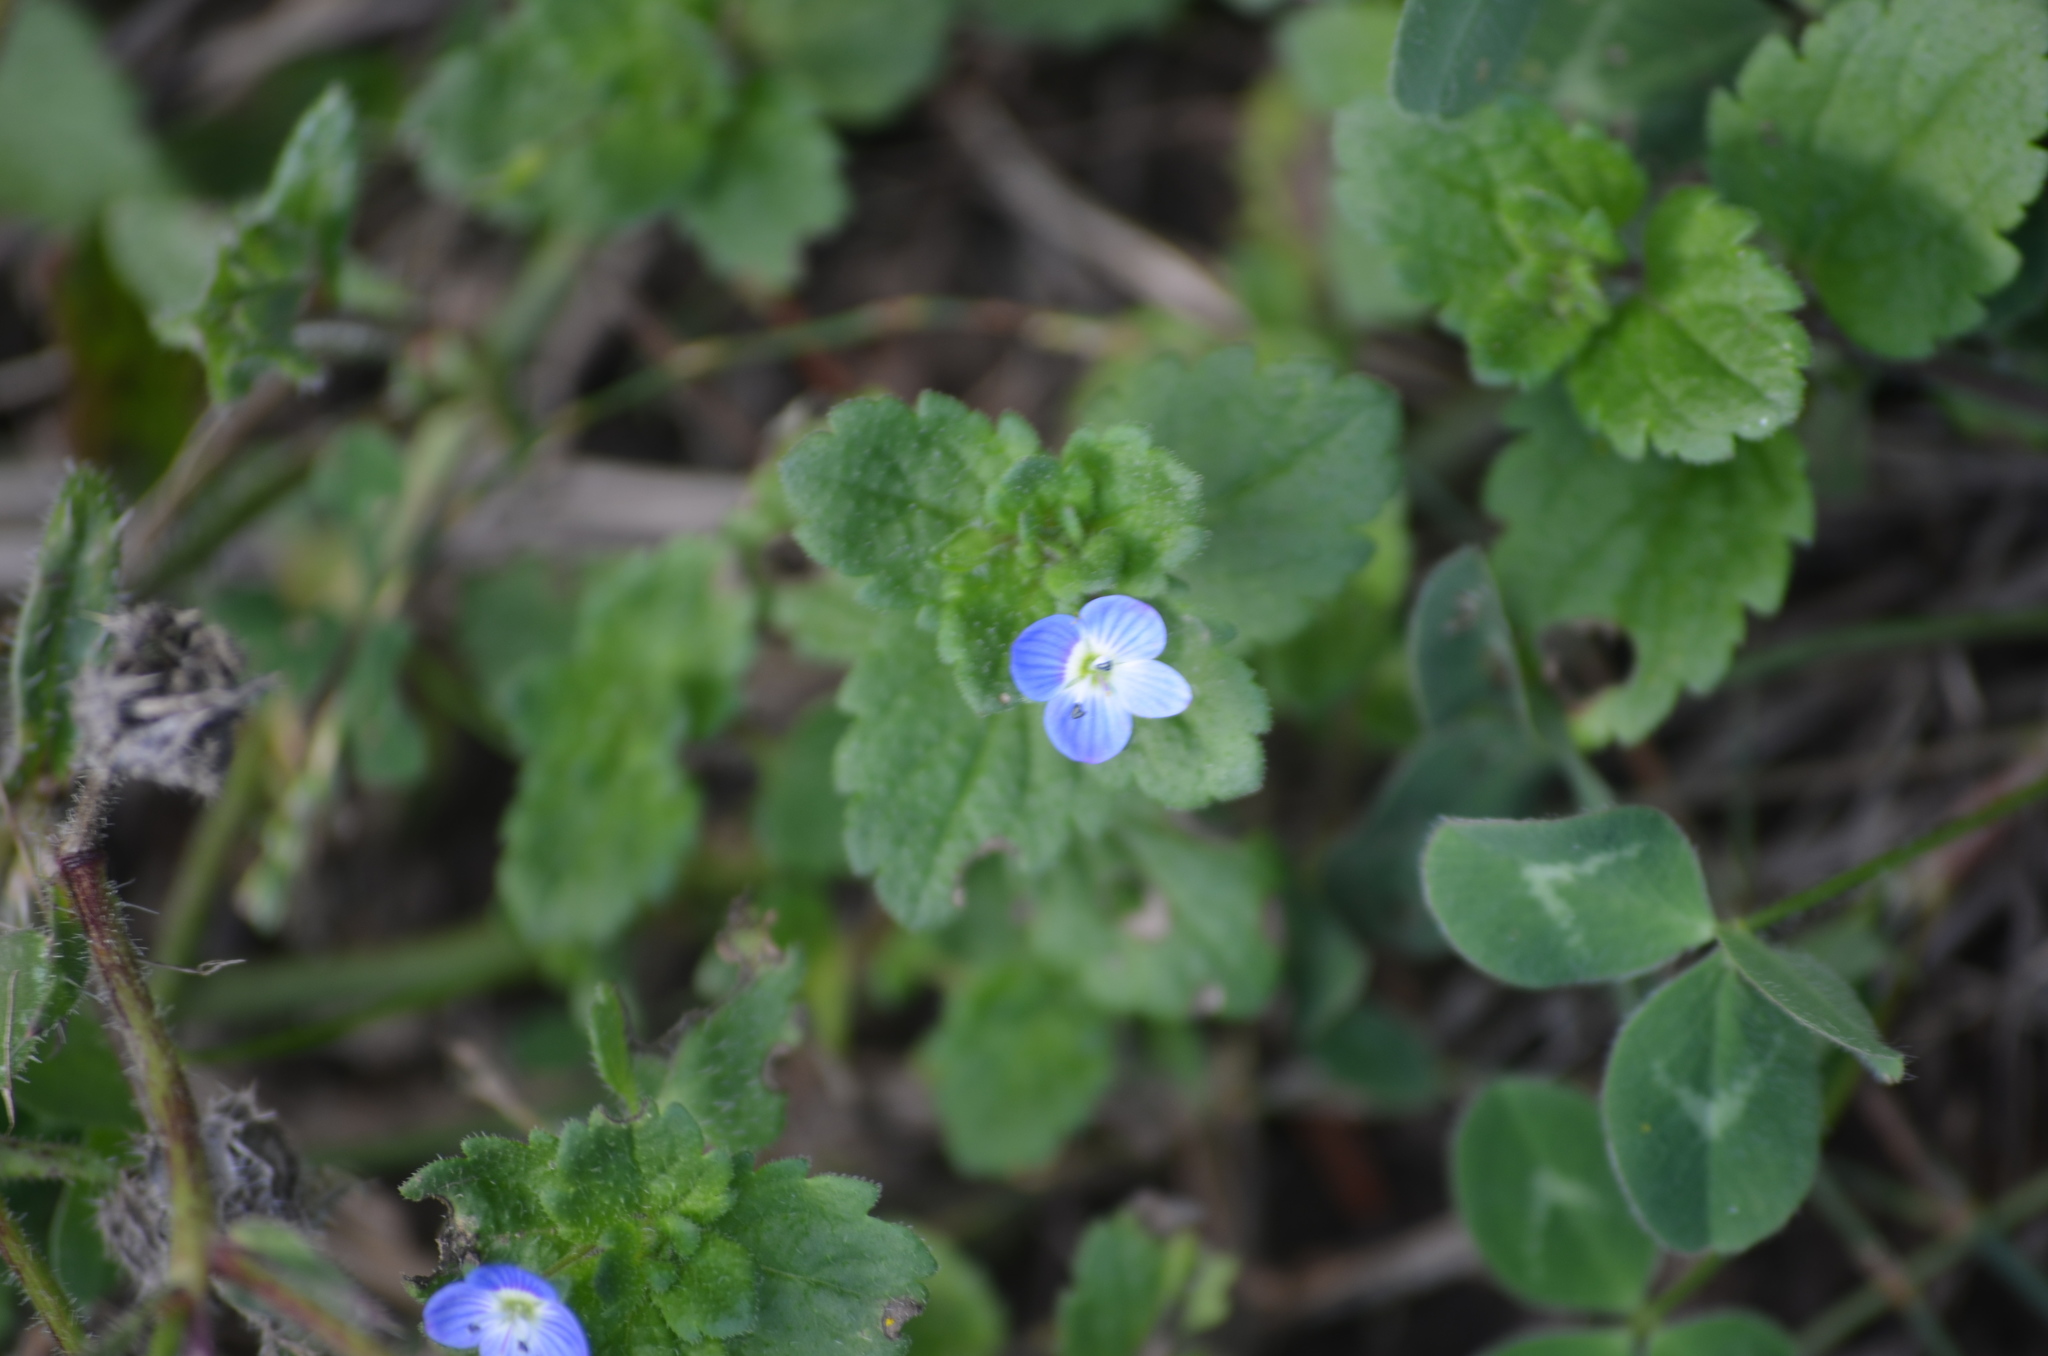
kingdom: Plantae
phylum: Tracheophyta
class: Magnoliopsida
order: Lamiales
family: Plantaginaceae
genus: Veronica
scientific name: Veronica persica
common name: Common field-speedwell
